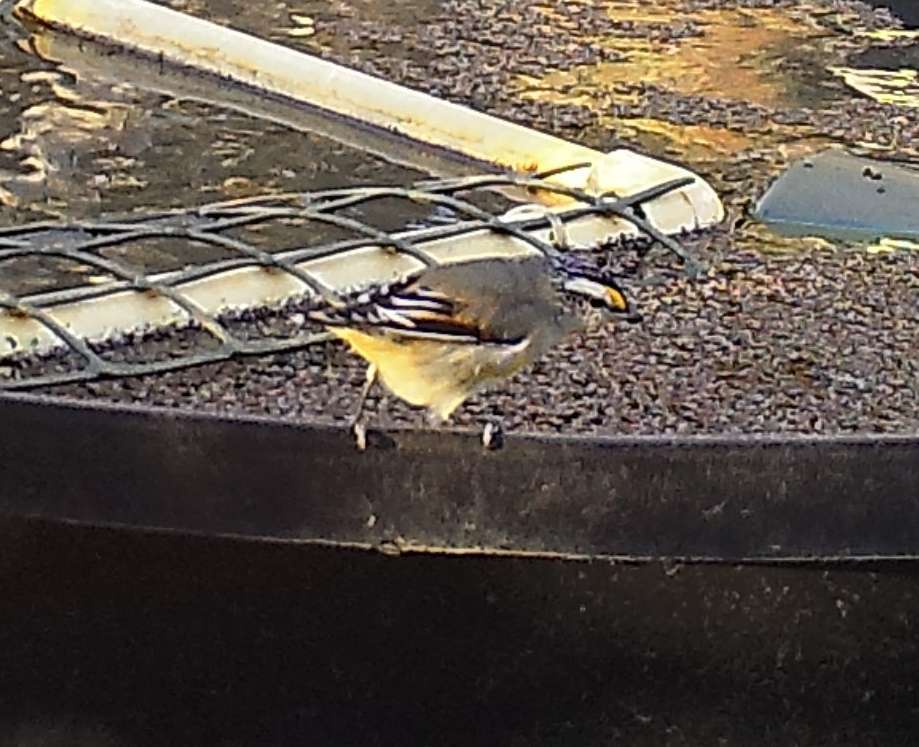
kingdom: Animalia
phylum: Chordata
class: Aves
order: Passeriformes
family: Pardalotidae
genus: Pardalotus
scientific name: Pardalotus striatus
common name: Striated pardalote
